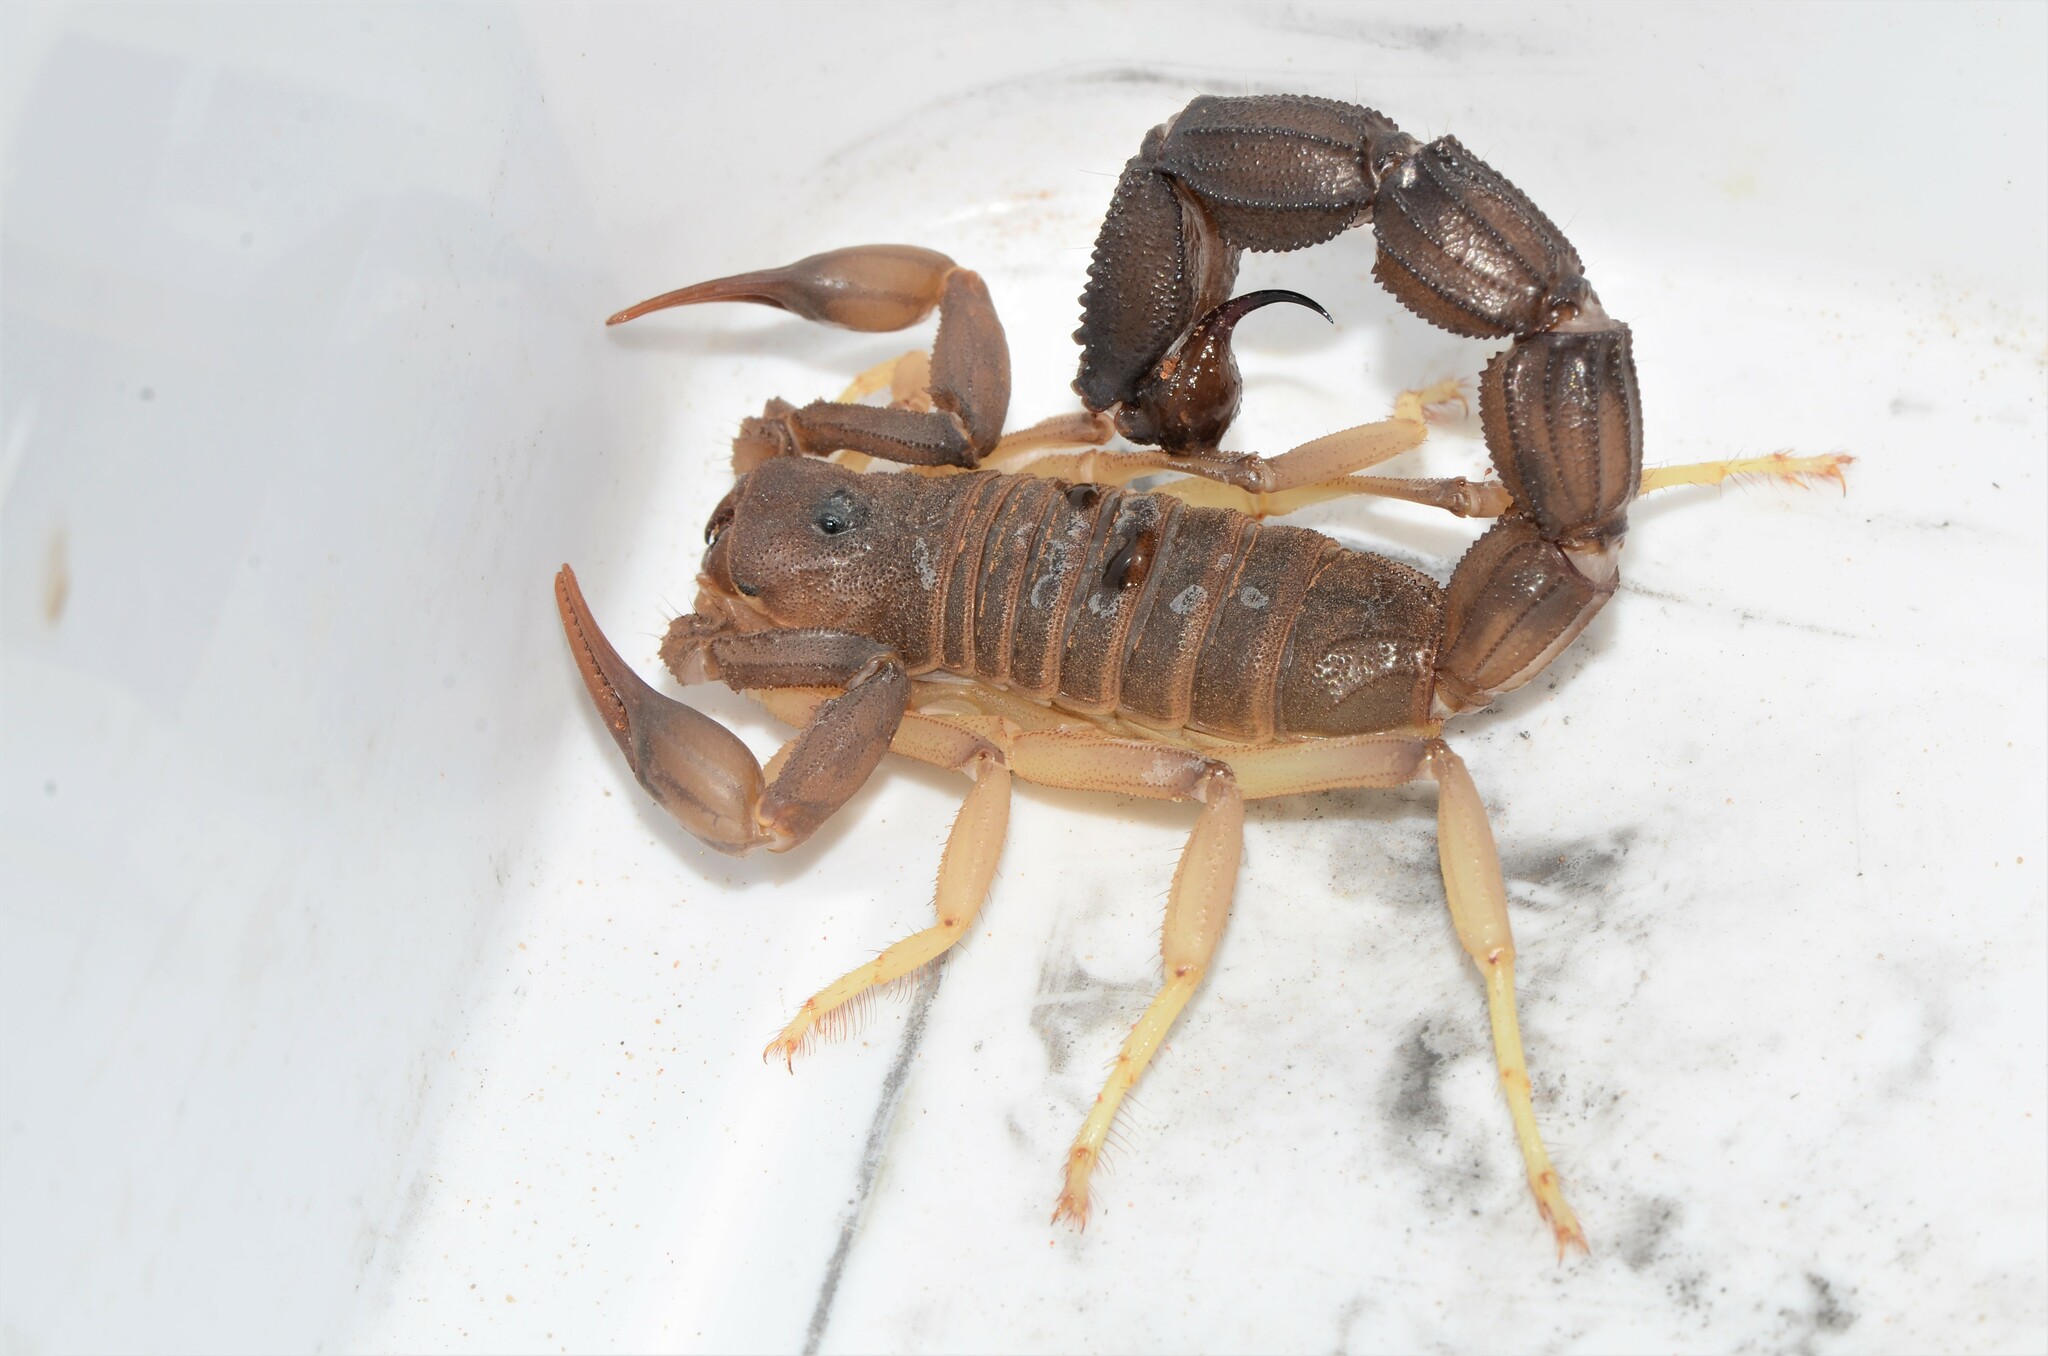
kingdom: Animalia
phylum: Arthropoda
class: Arachnida
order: Scorpiones
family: Buthidae
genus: Parabuthus
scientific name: Parabuthus granulatus
